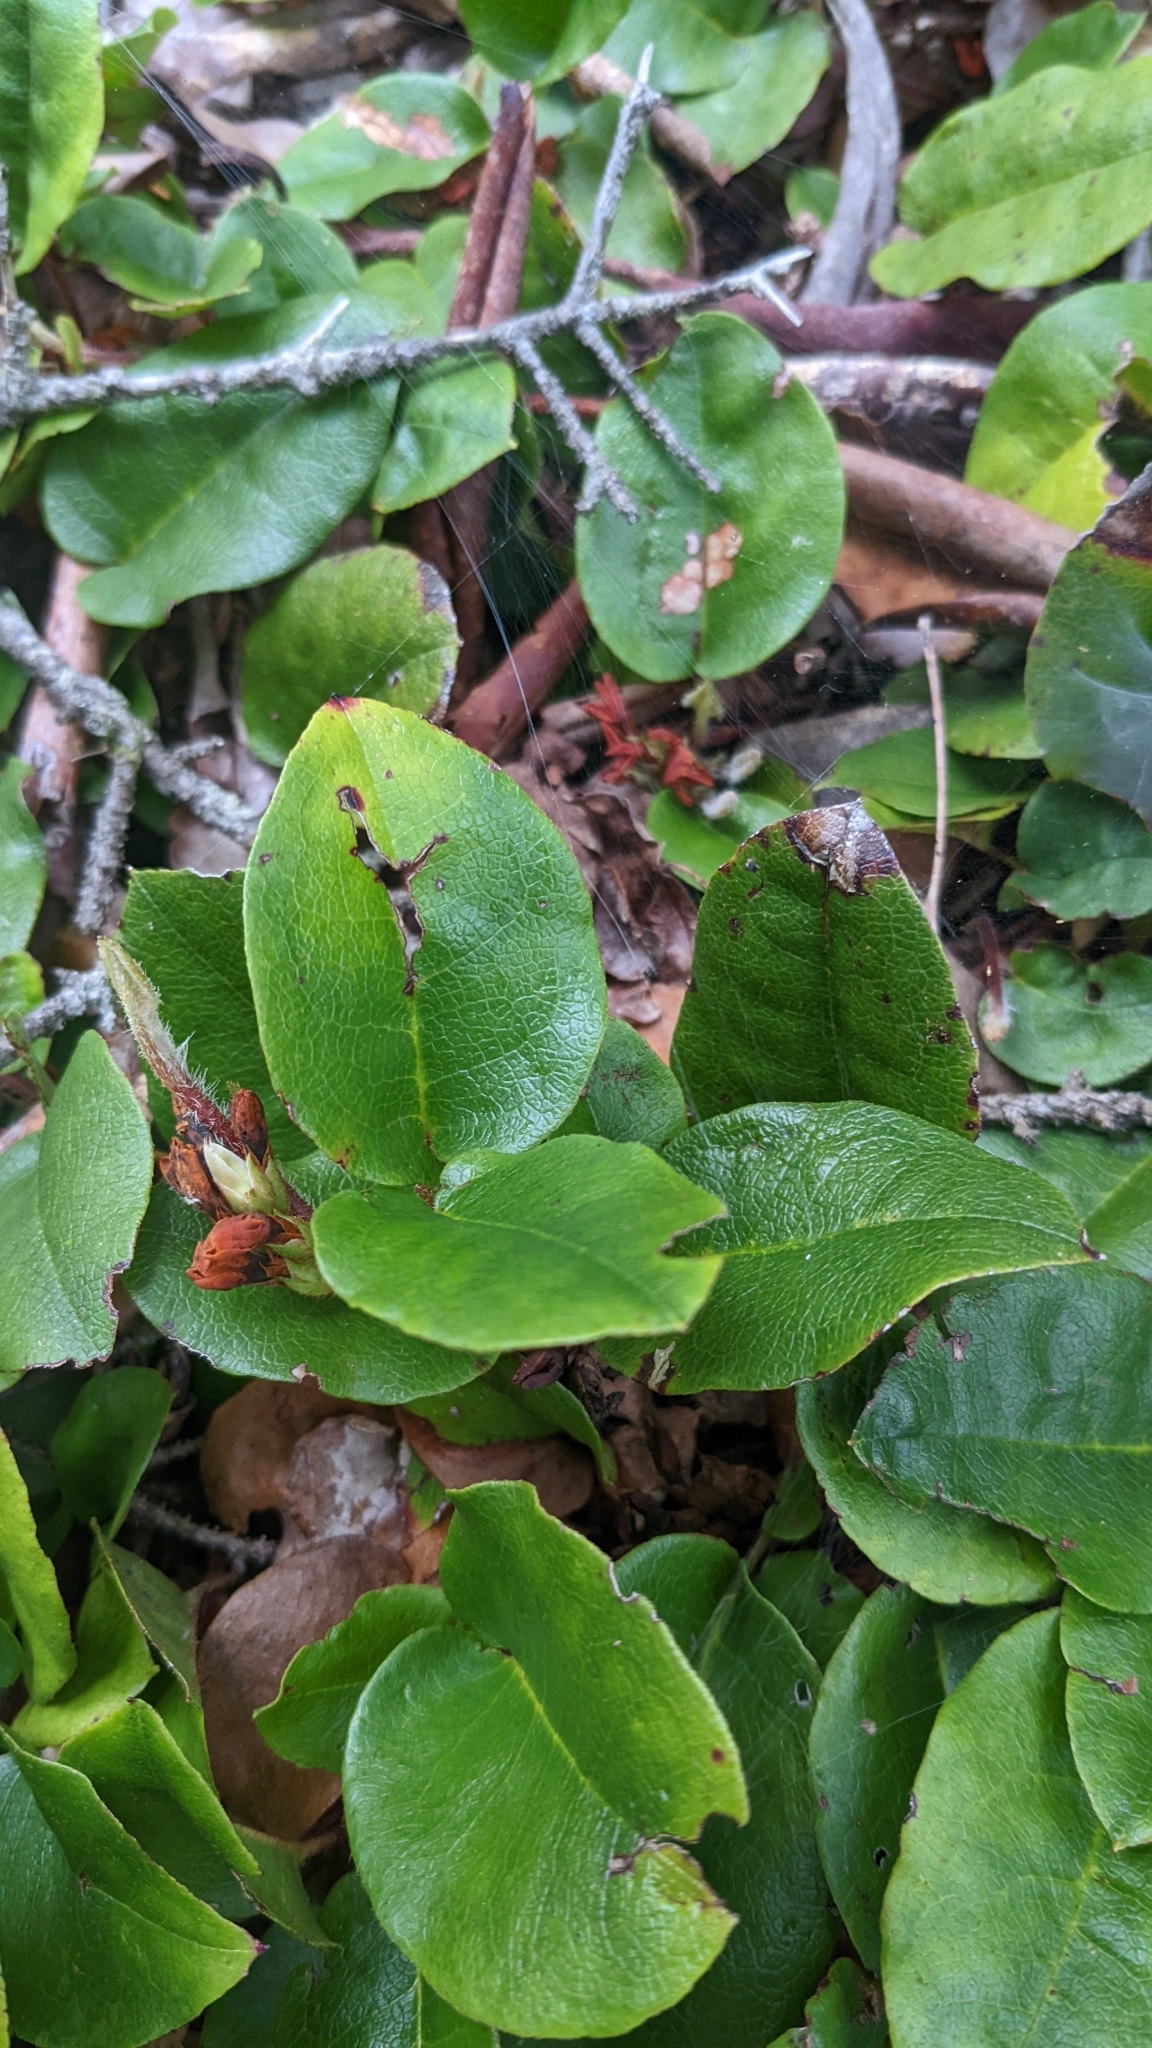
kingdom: Plantae
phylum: Tracheophyta
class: Magnoliopsida
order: Ericales
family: Ericaceae
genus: Epigaea
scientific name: Epigaea repens
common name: Gravelroot
